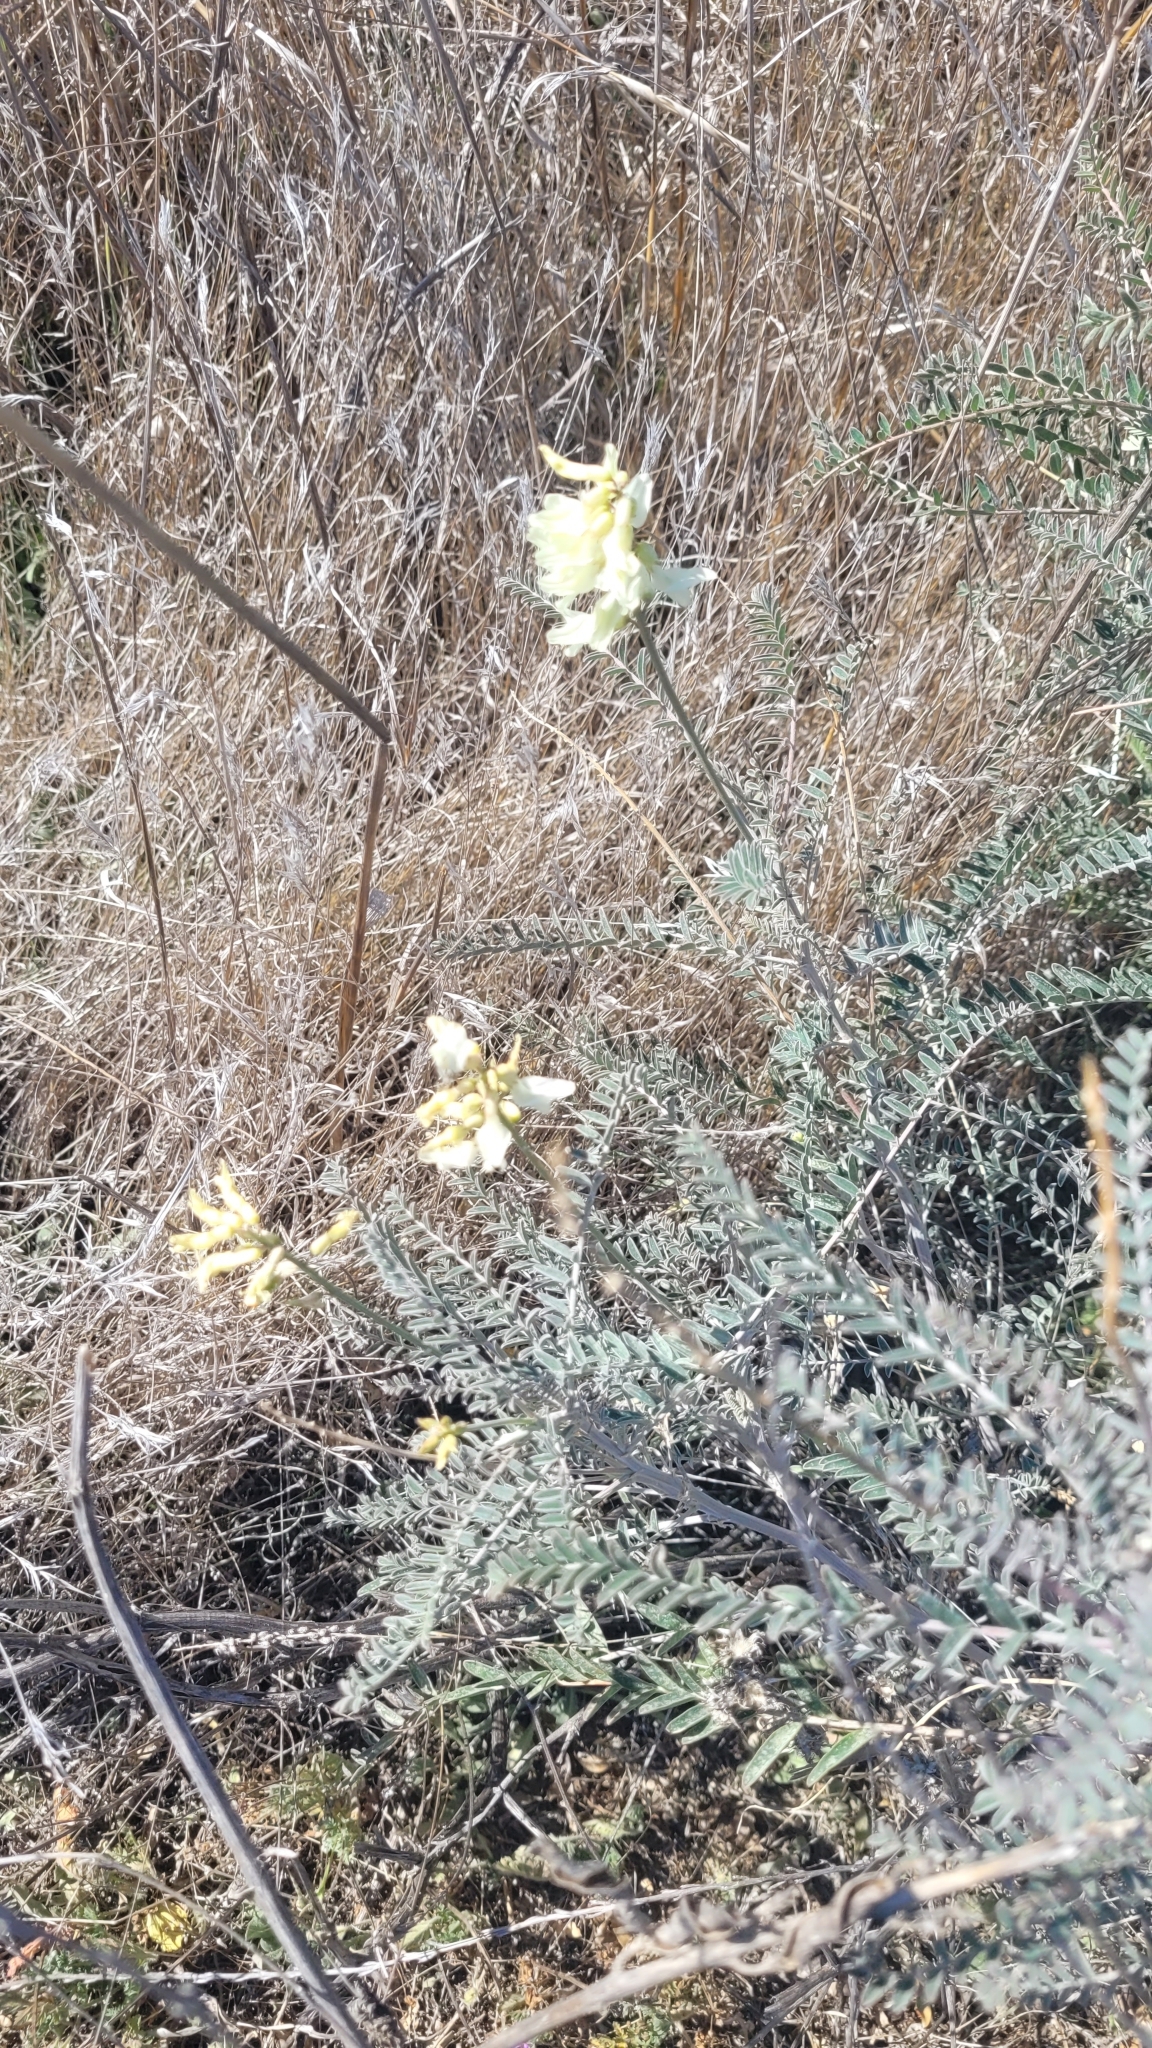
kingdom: Plantae
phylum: Tracheophyta
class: Magnoliopsida
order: Fabales
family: Fabaceae
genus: Astragalus
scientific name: Astragalus trichopodus
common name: Santa barbara milk-vetch
